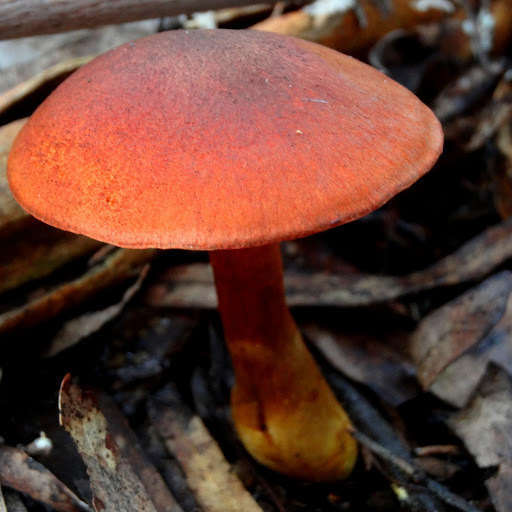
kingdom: Fungi
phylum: Basidiomycota
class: Agaricomycetes
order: Agaricales
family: Cortinariaceae
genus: Cortinarius
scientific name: Cortinarius persplendidus
